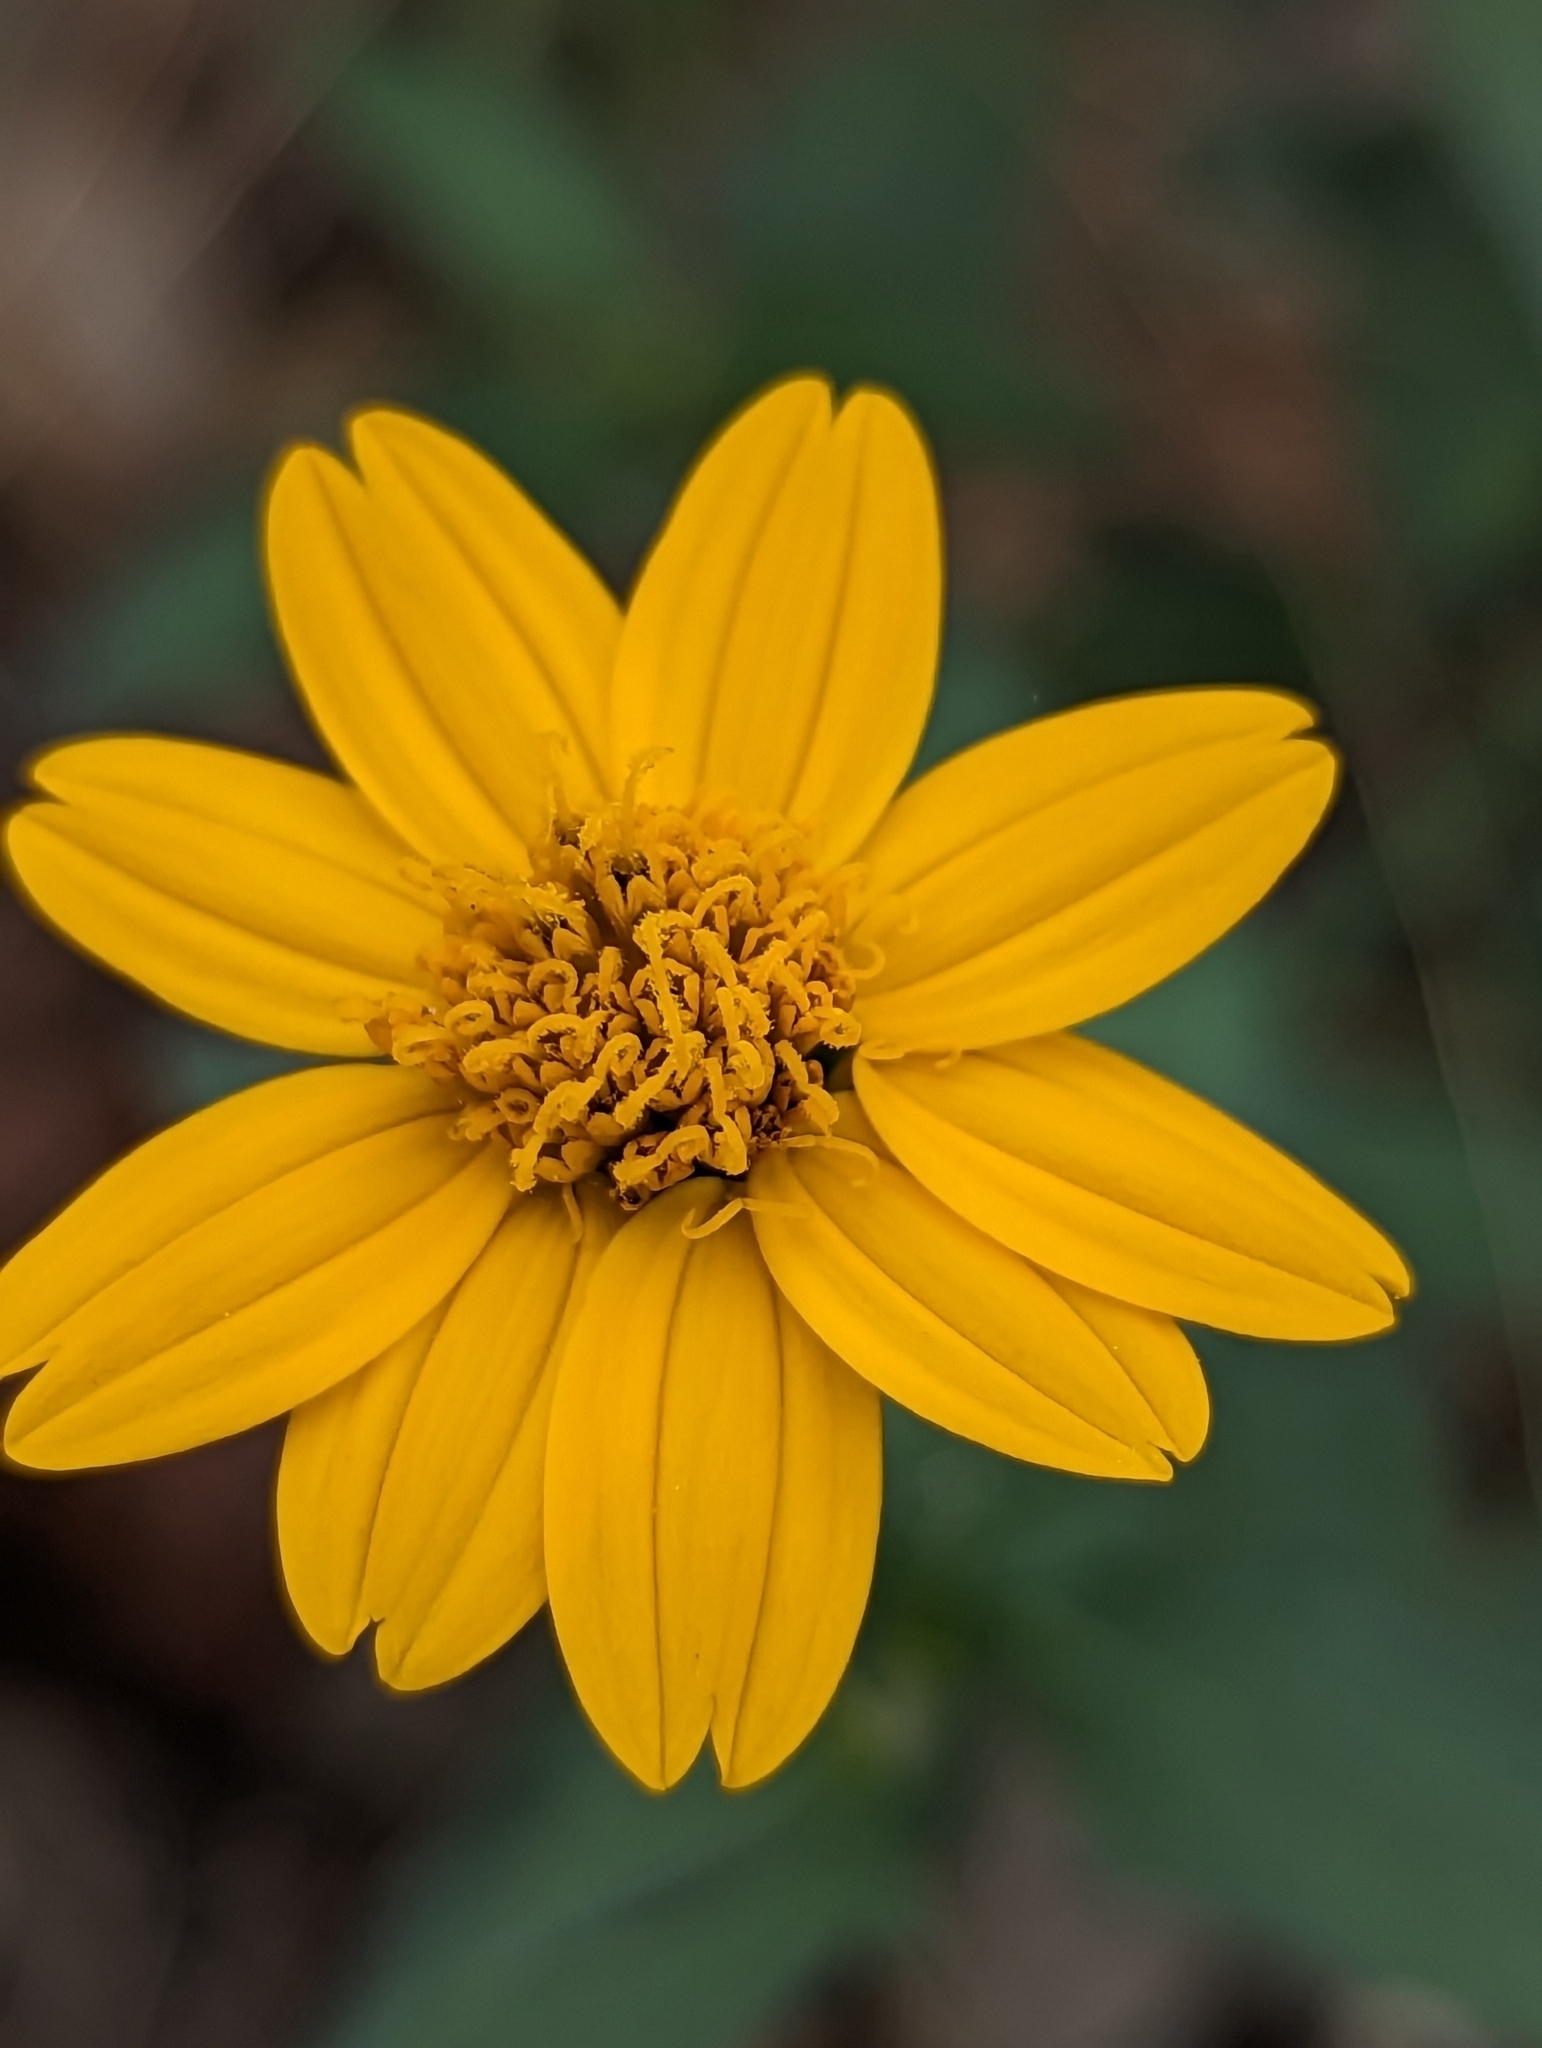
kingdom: Plantae
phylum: Tracheophyta
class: Magnoliopsida
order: Asterales
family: Asteraceae
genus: Wedelia
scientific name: Wedelia acapulcensis
